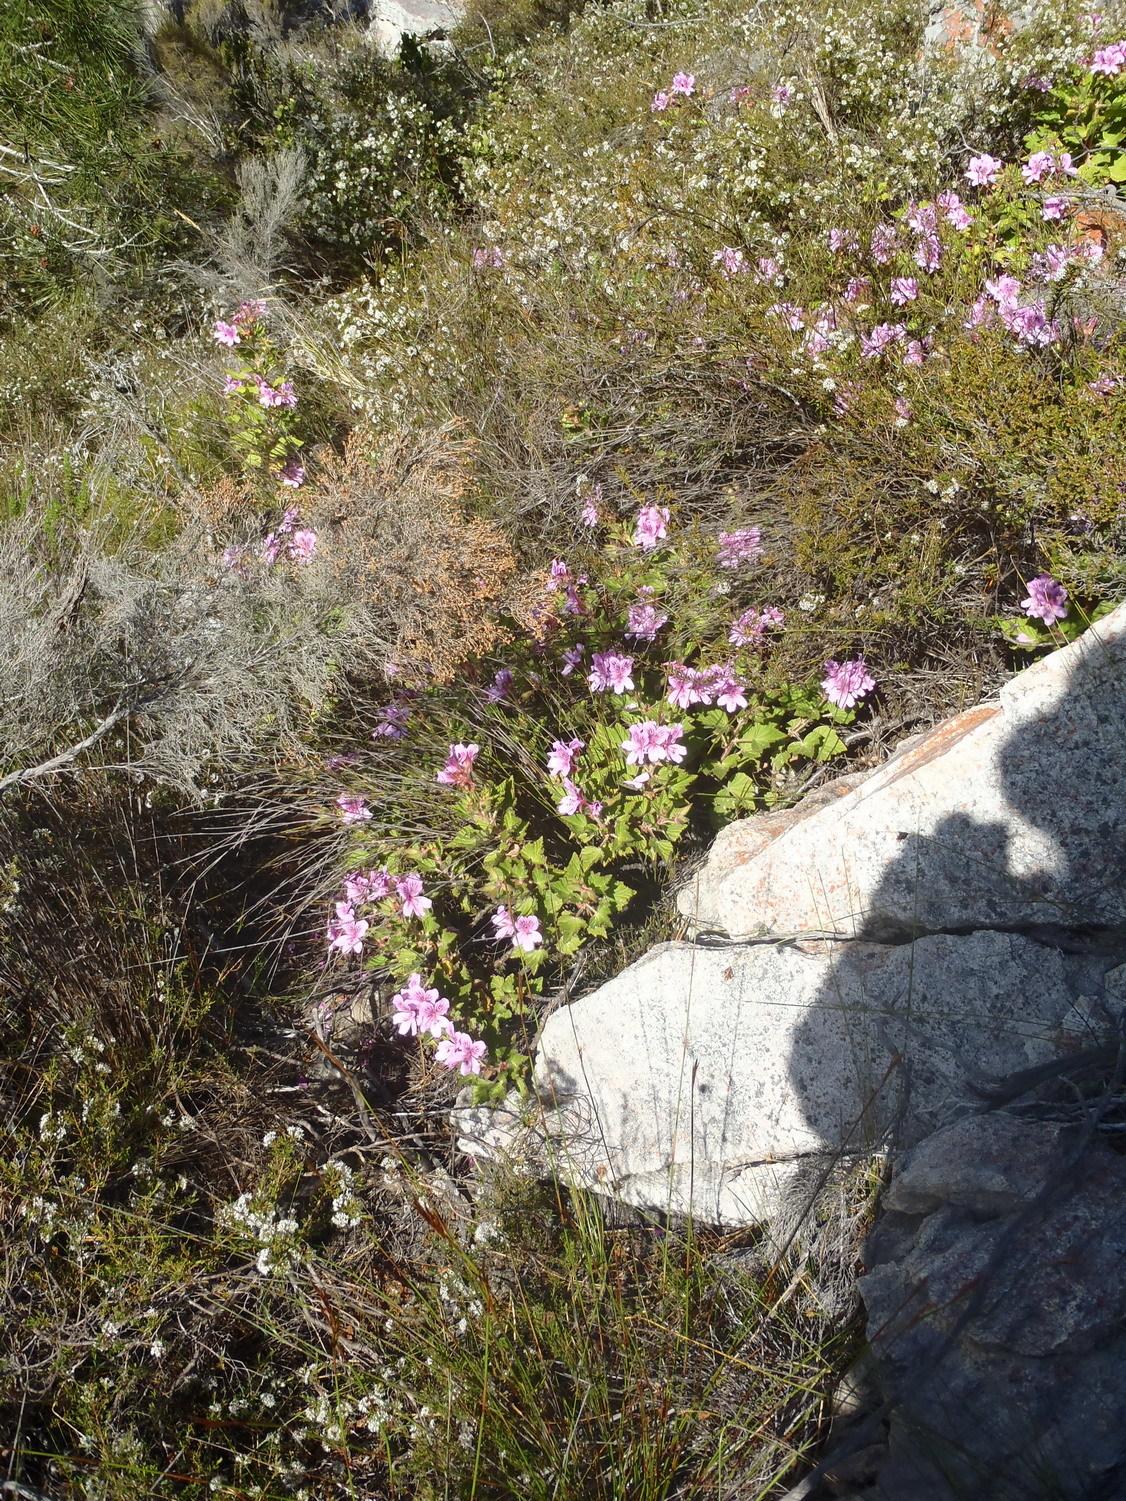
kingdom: Plantae
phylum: Tracheophyta
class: Magnoliopsida
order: Geraniales
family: Geraniaceae
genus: Pelargonium
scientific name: Pelargonium cucullatum
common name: Tree pelargonium
